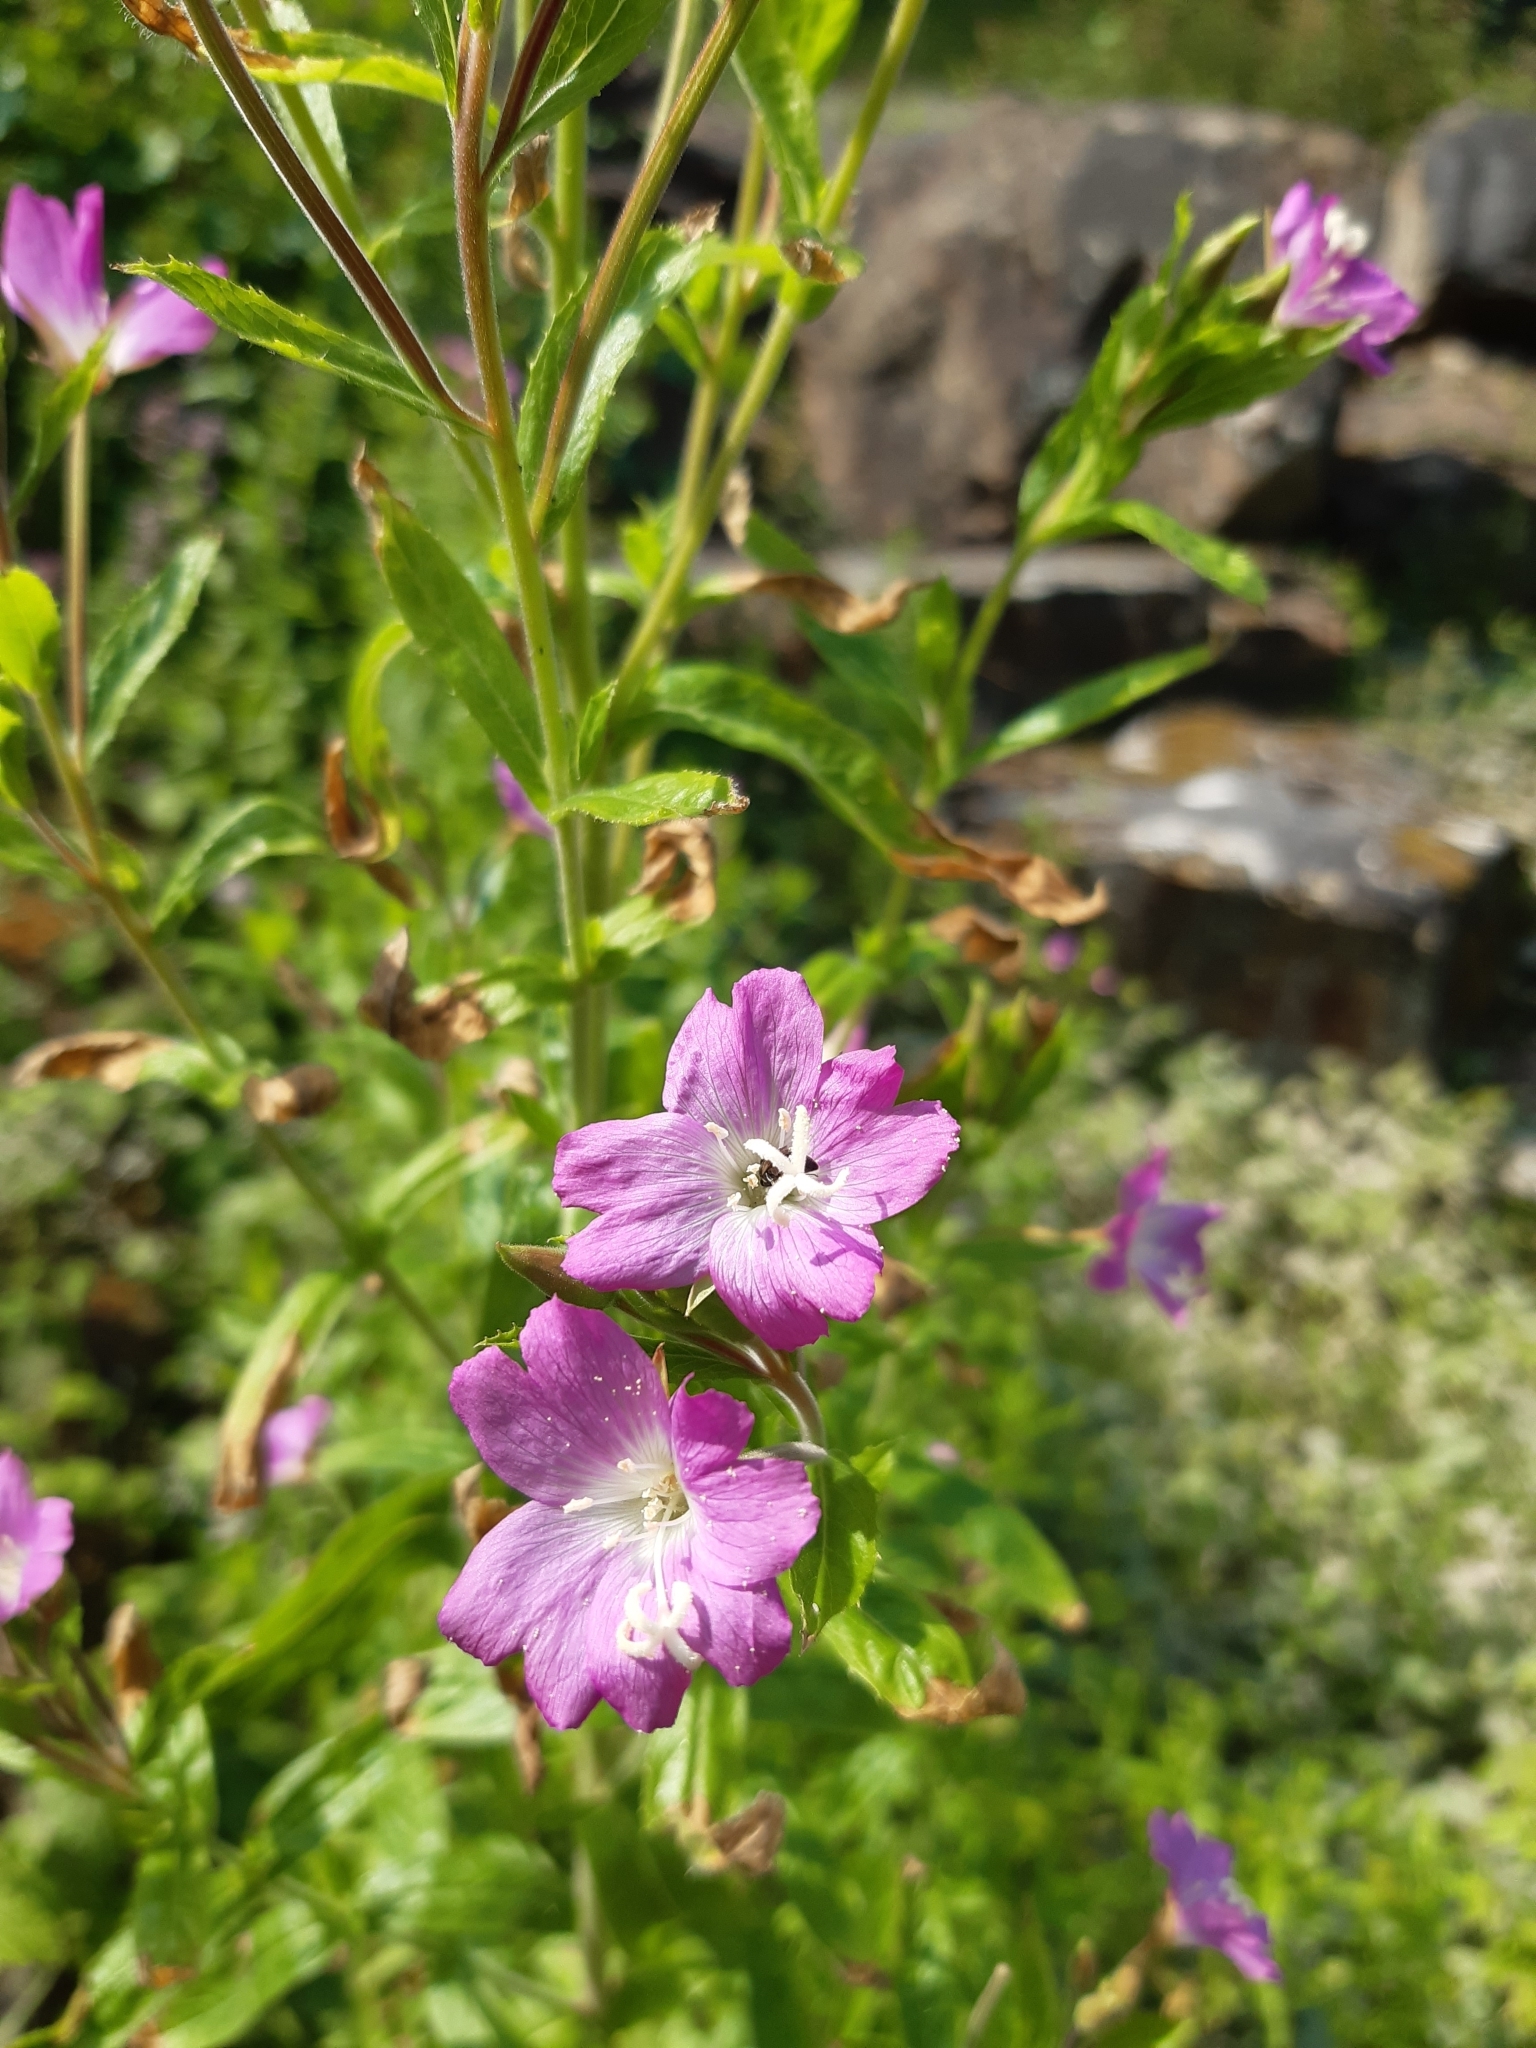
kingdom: Plantae
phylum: Tracheophyta
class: Magnoliopsida
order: Myrtales
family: Onagraceae
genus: Epilobium
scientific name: Epilobium hirsutum
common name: Great willowherb
